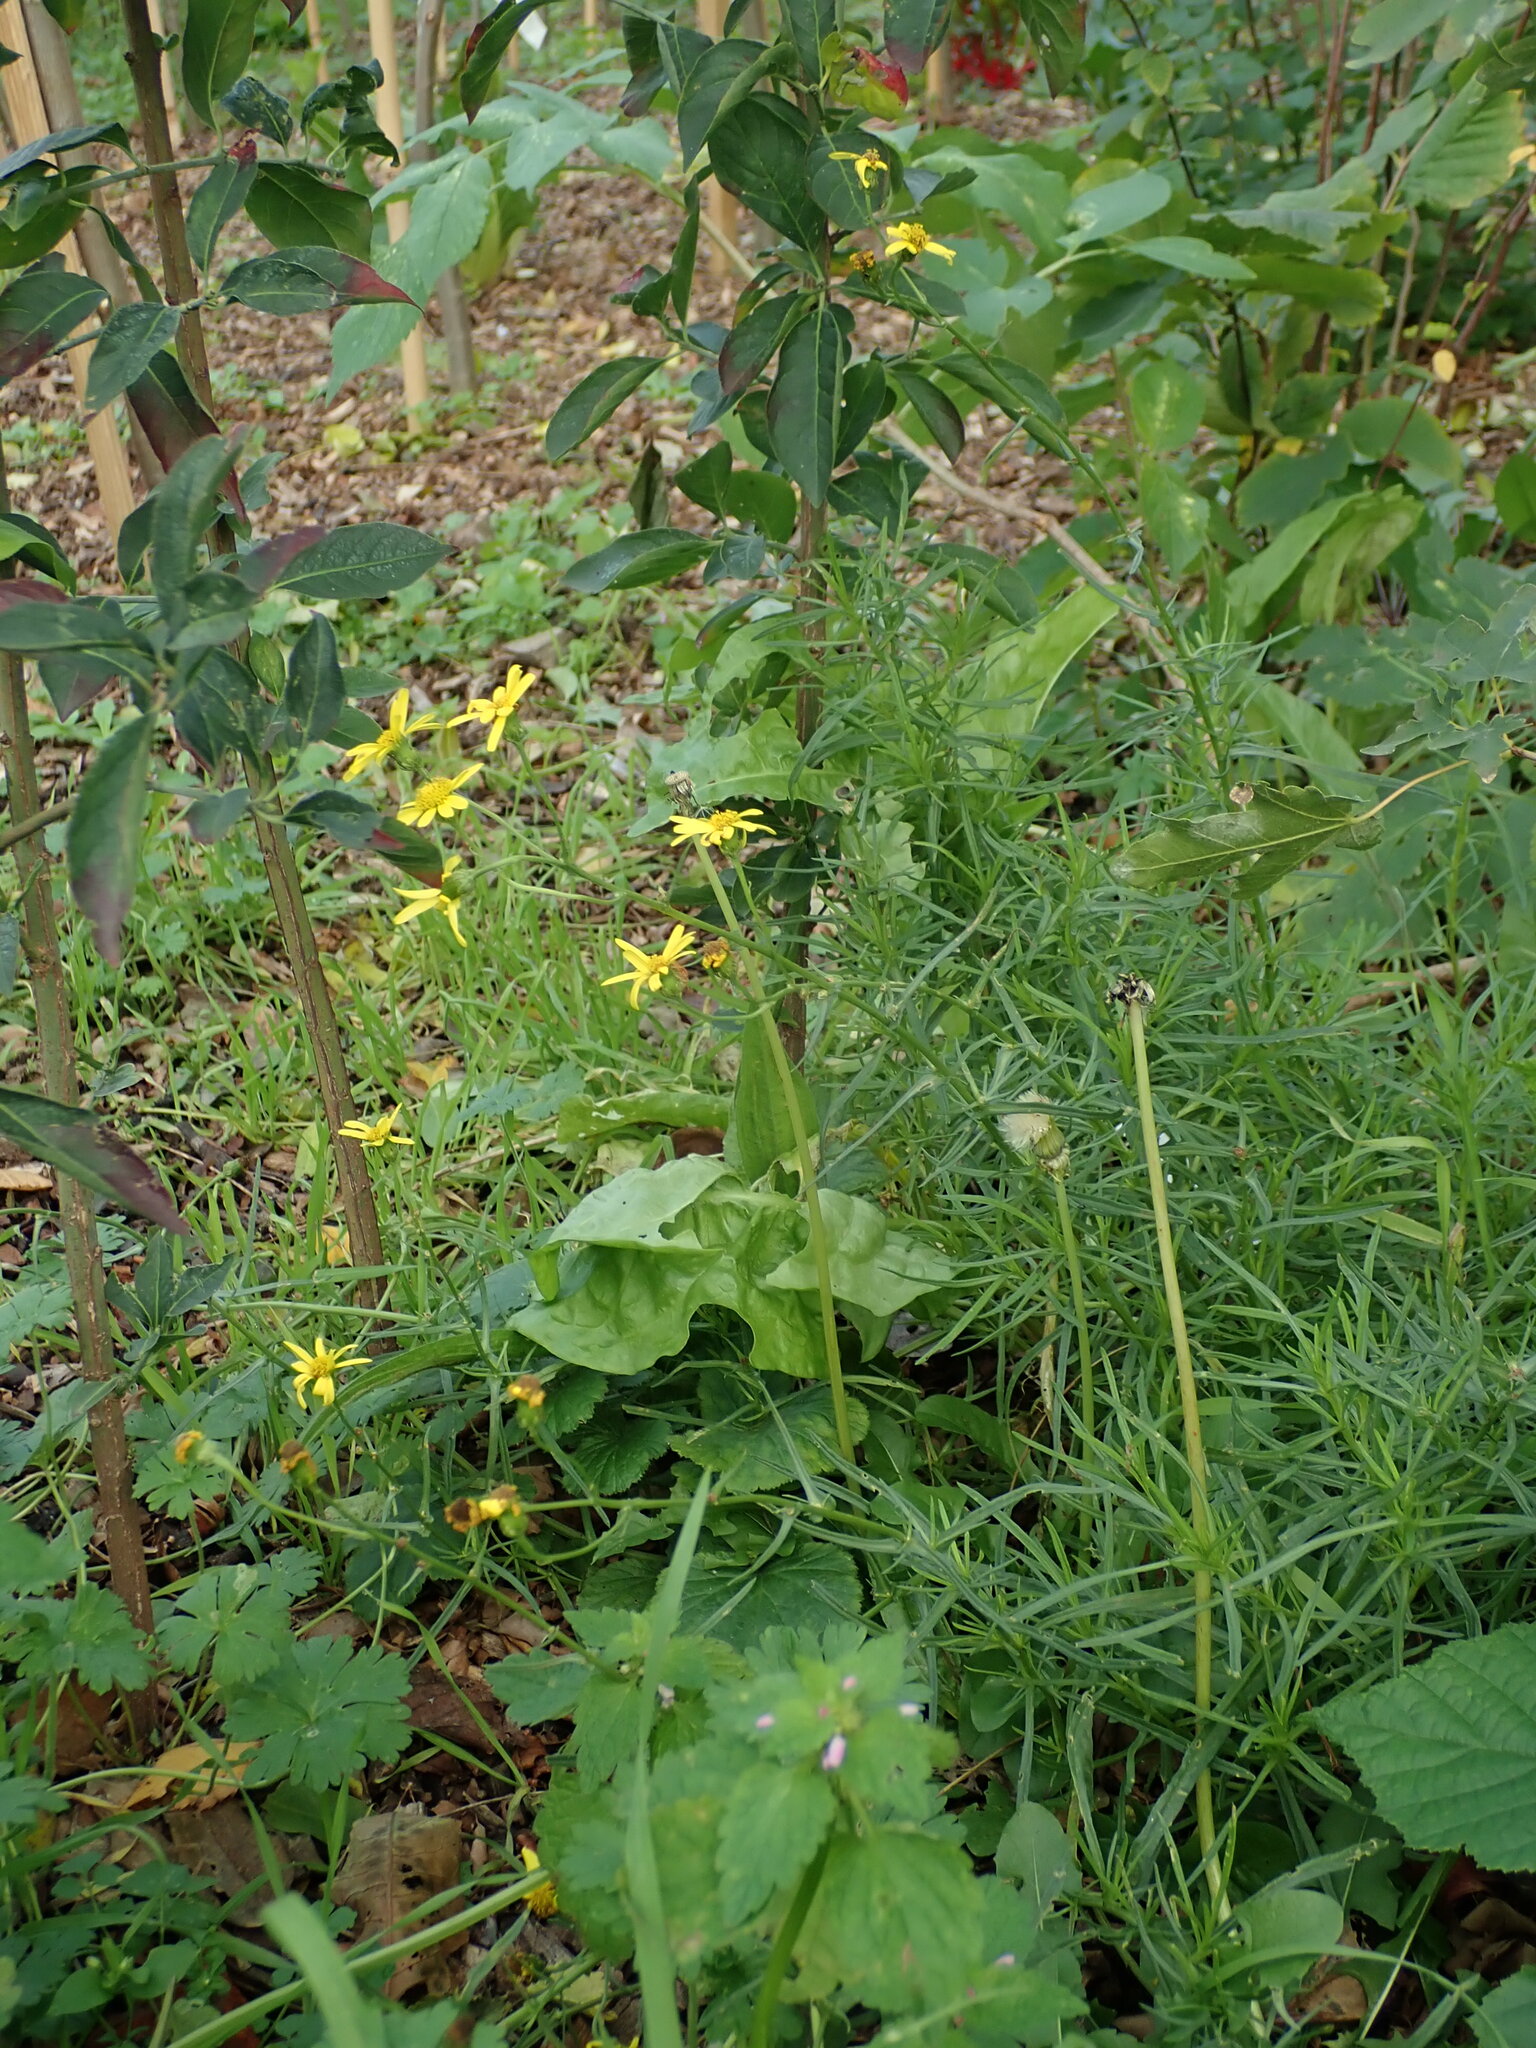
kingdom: Plantae
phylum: Tracheophyta
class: Magnoliopsida
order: Asterales
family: Asteraceae
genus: Senecio
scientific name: Senecio inaequidens
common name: Narrow-leaved ragwort
